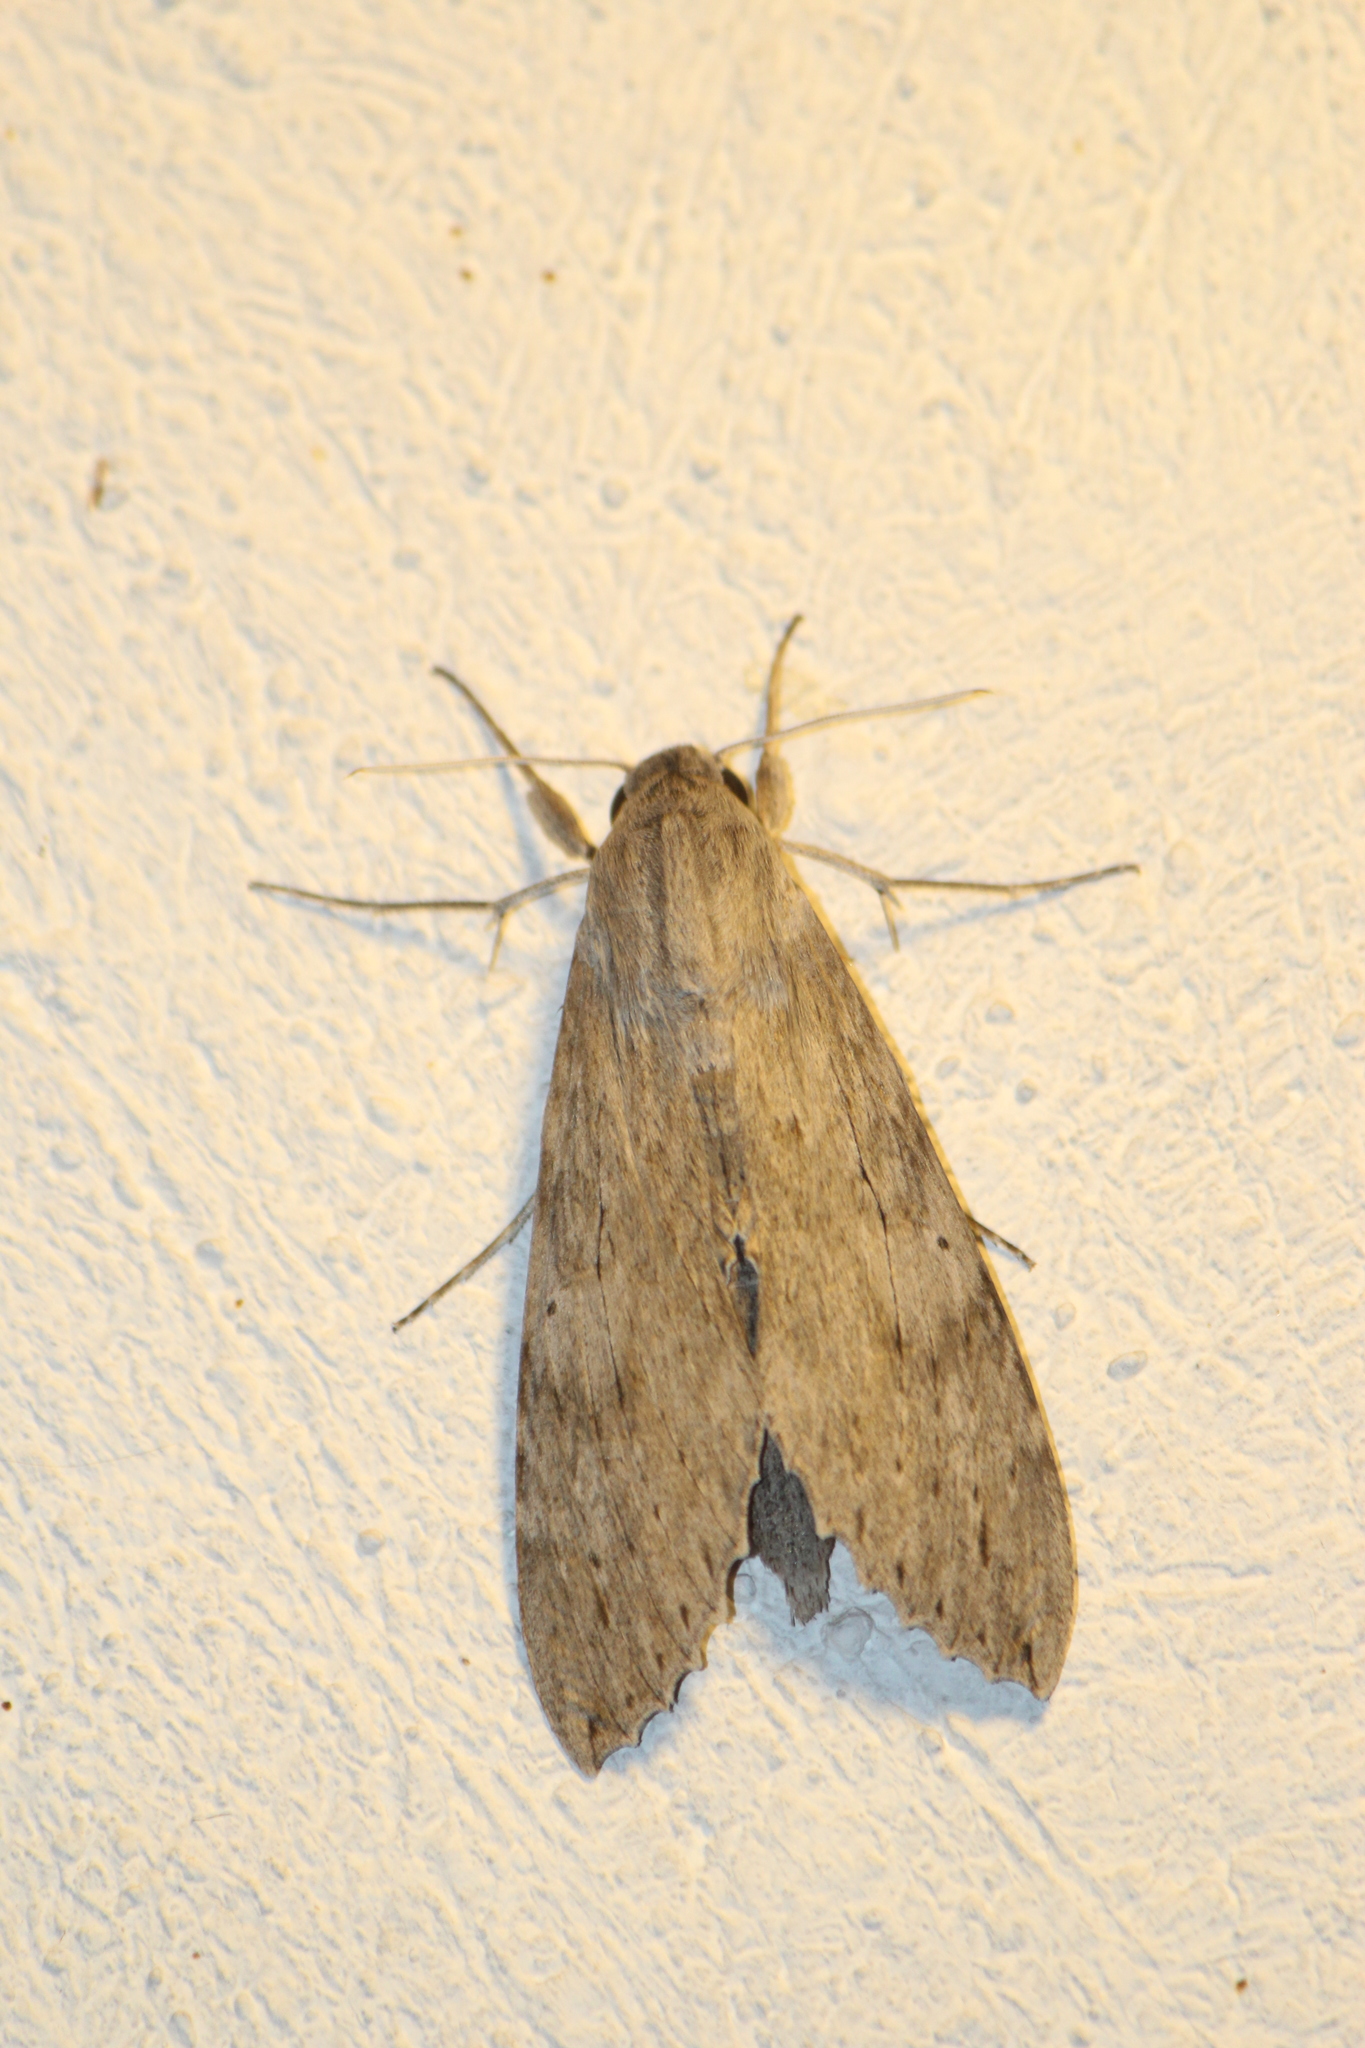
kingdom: Animalia
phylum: Arthropoda
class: Insecta
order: Lepidoptera
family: Sphingidae
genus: Erinnyis
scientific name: Erinnyis ello
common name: Ello sphinx
